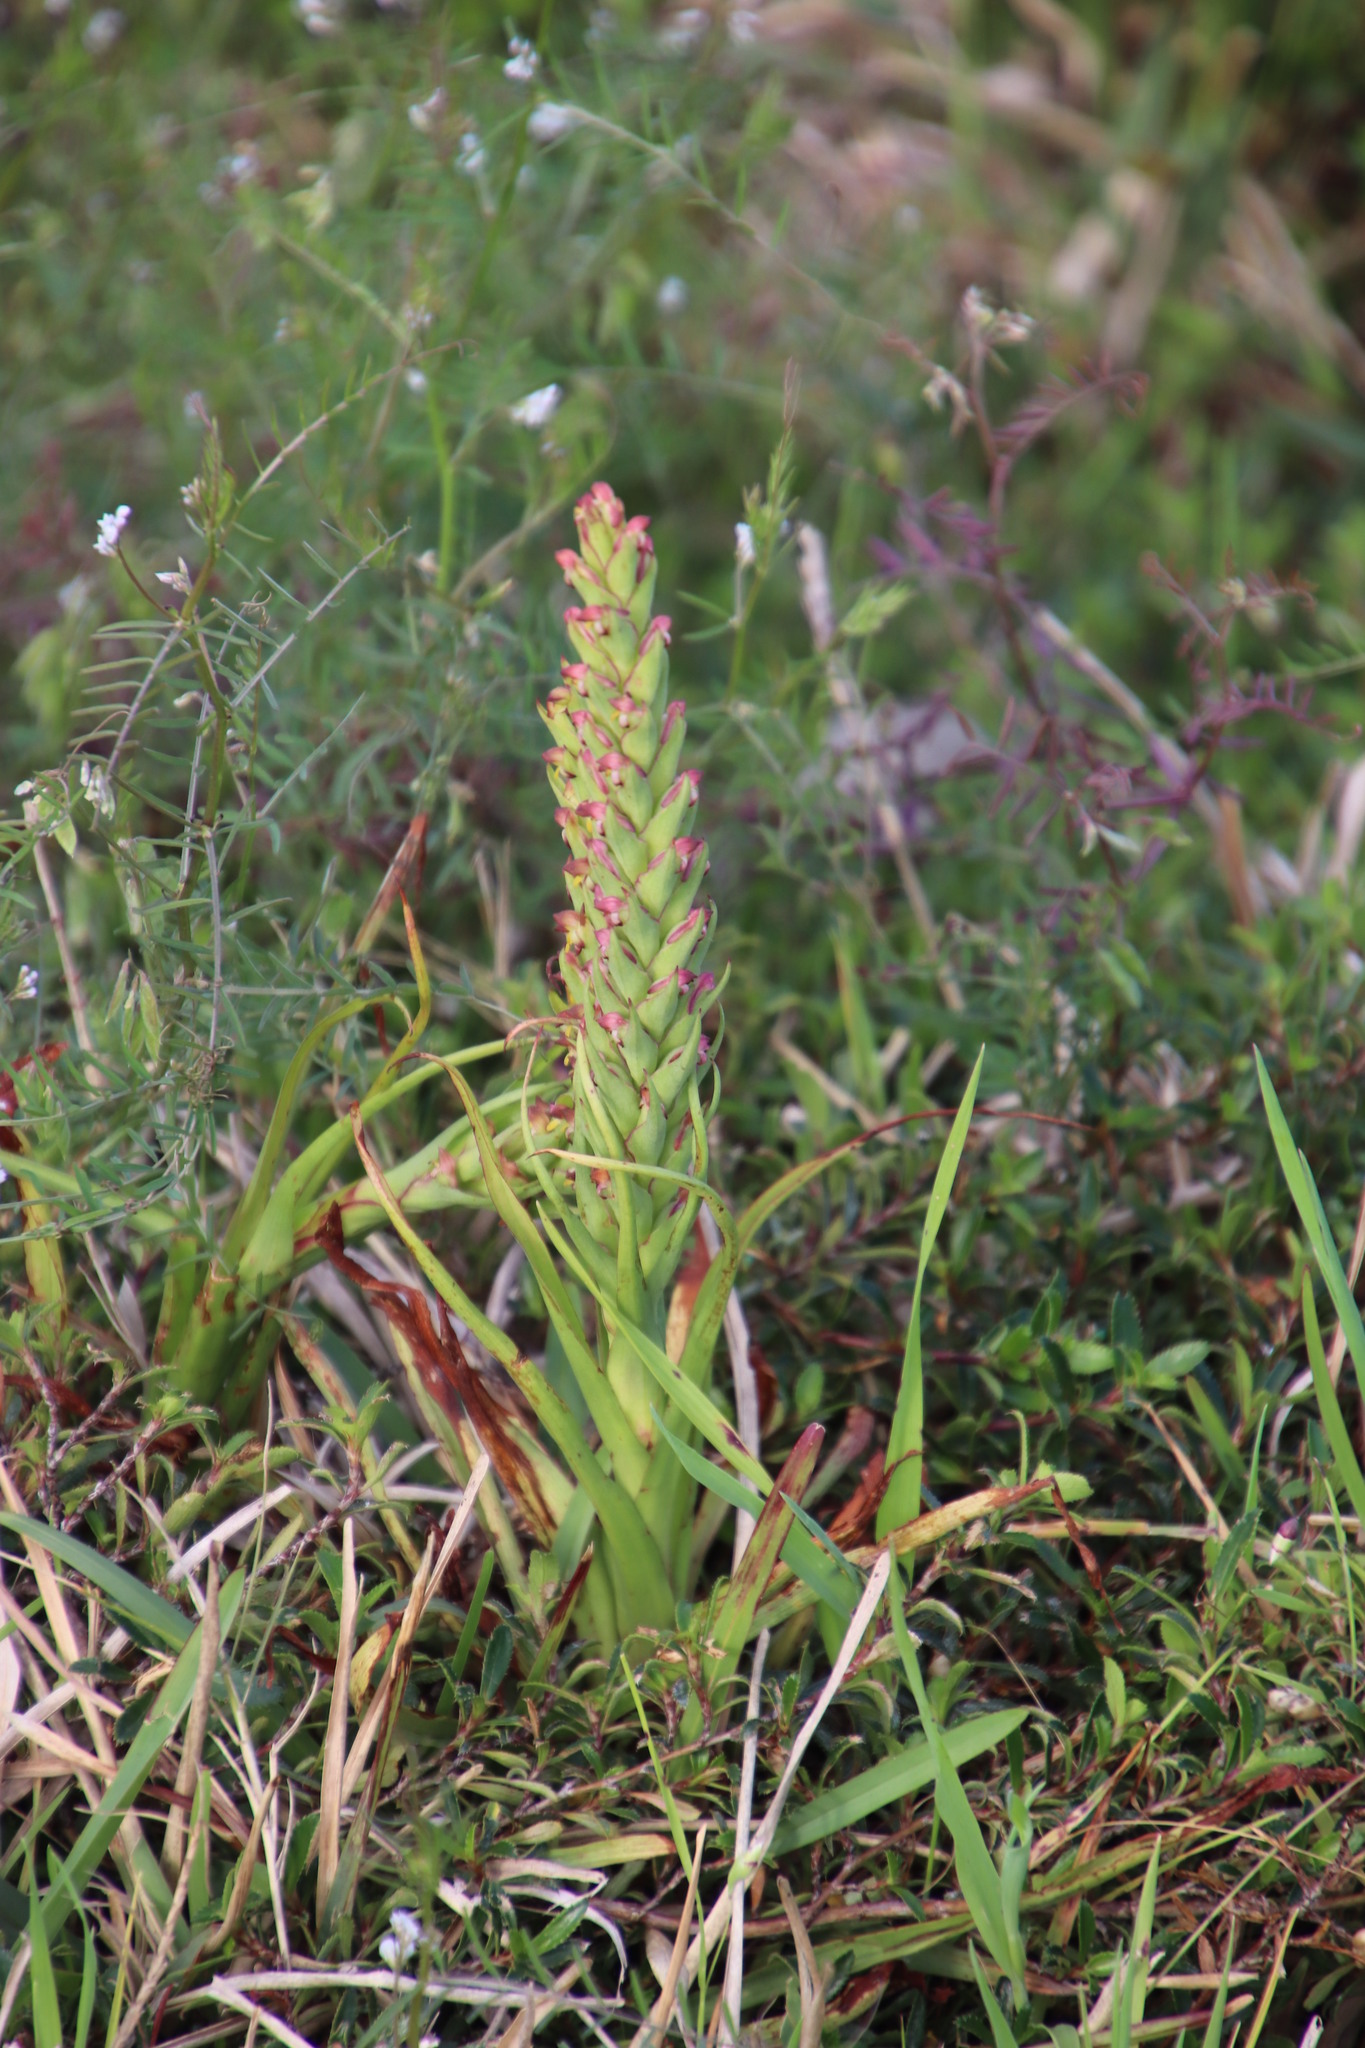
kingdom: Plantae
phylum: Tracheophyta
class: Liliopsida
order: Asparagales
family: Orchidaceae
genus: Disa
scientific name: Disa bracteata
